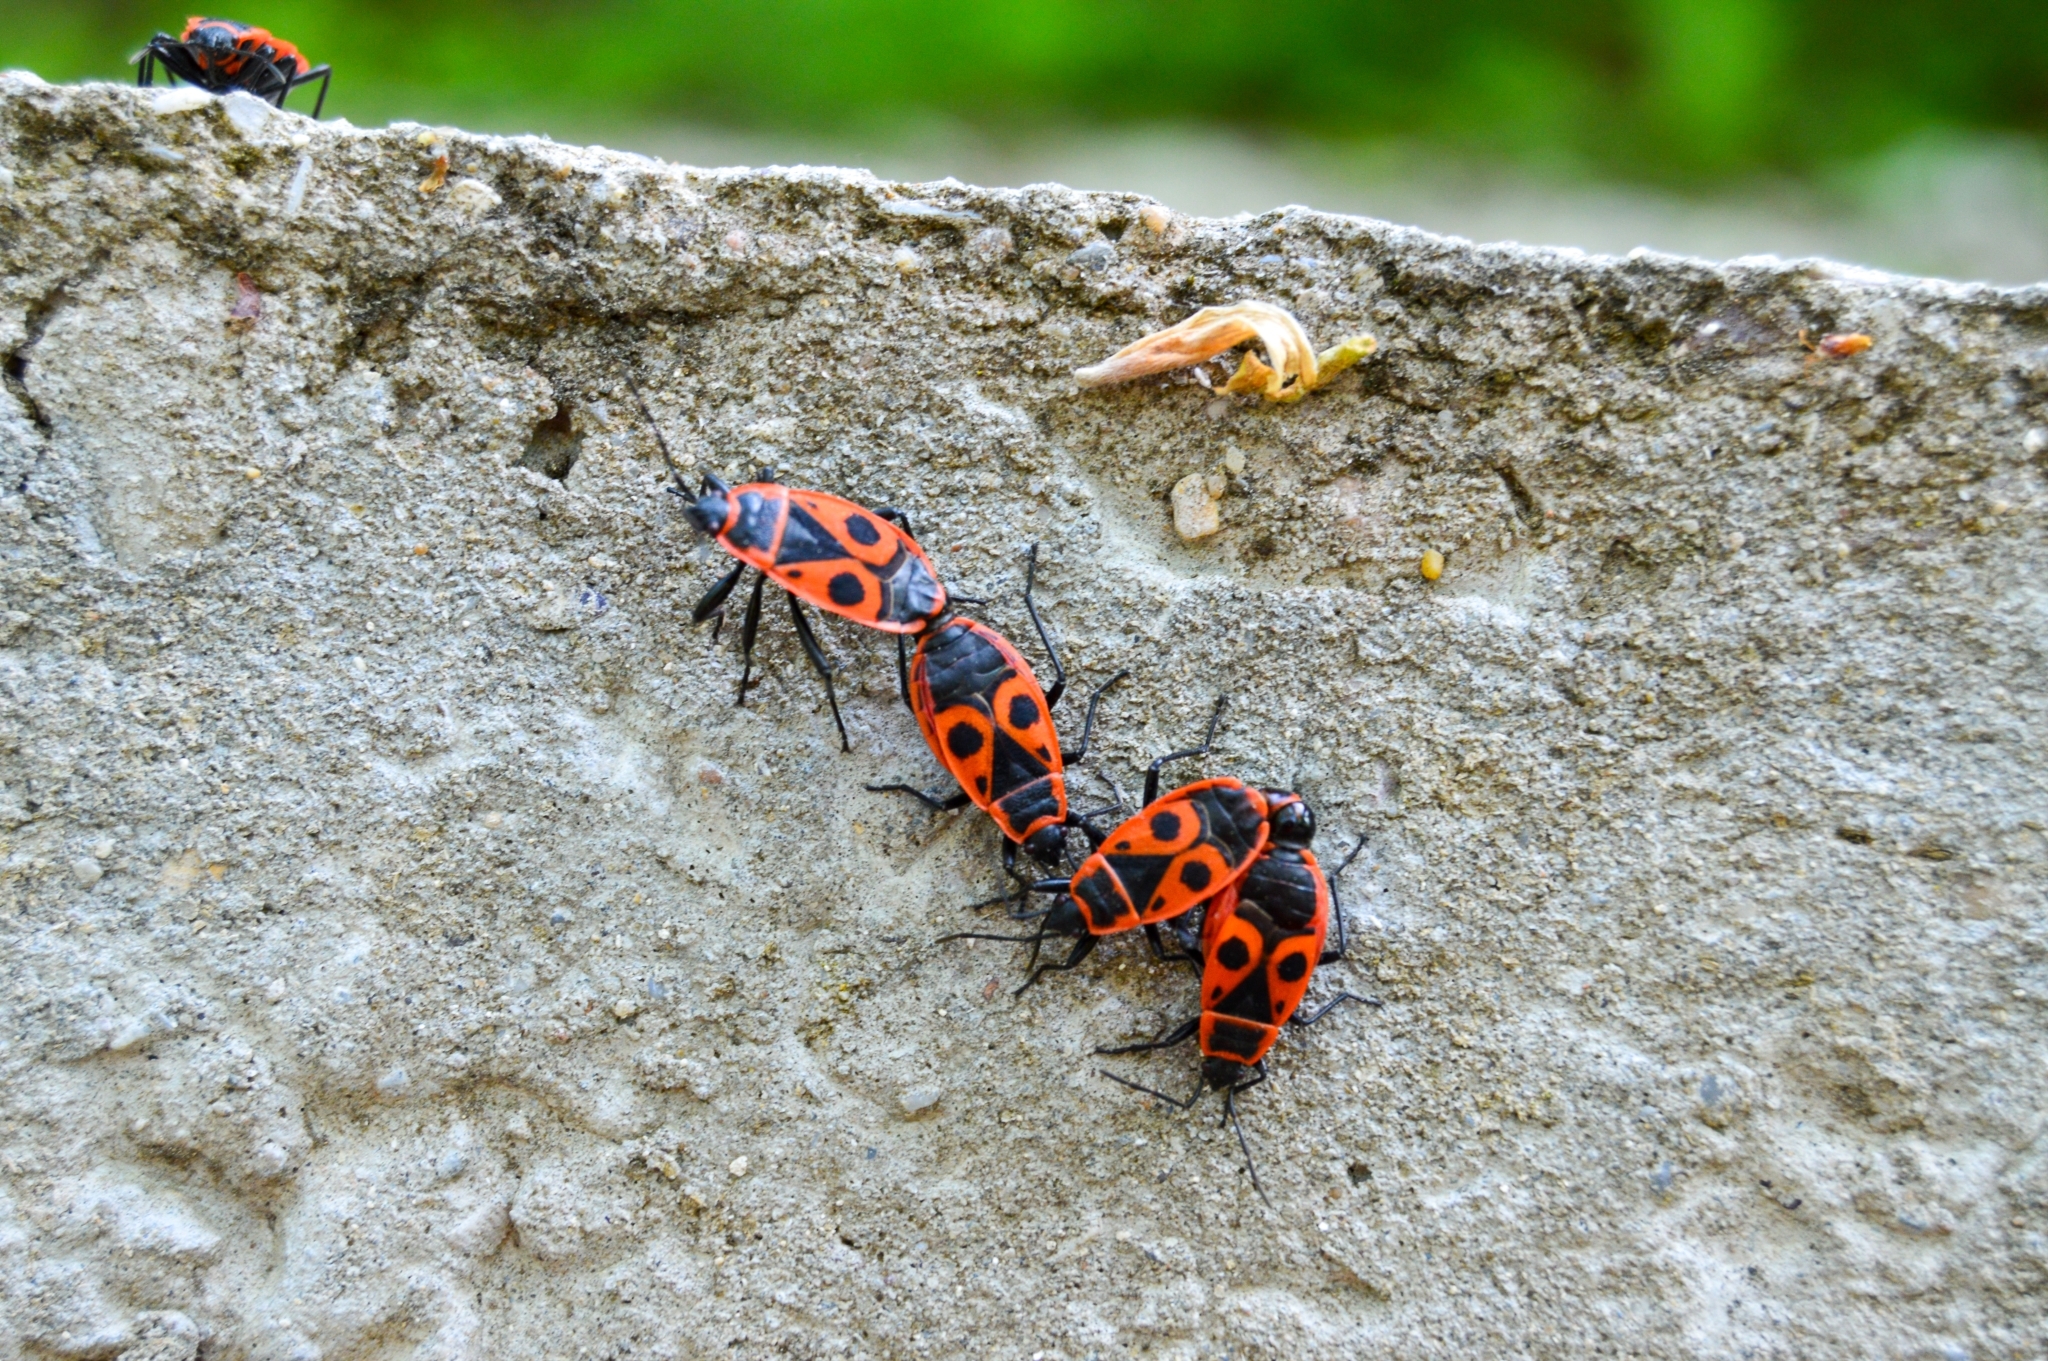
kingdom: Animalia
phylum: Arthropoda
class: Insecta
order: Hemiptera
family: Pyrrhocoridae
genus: Pyrrhocoris
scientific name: Pyrrhocoris apterus
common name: Firebug
